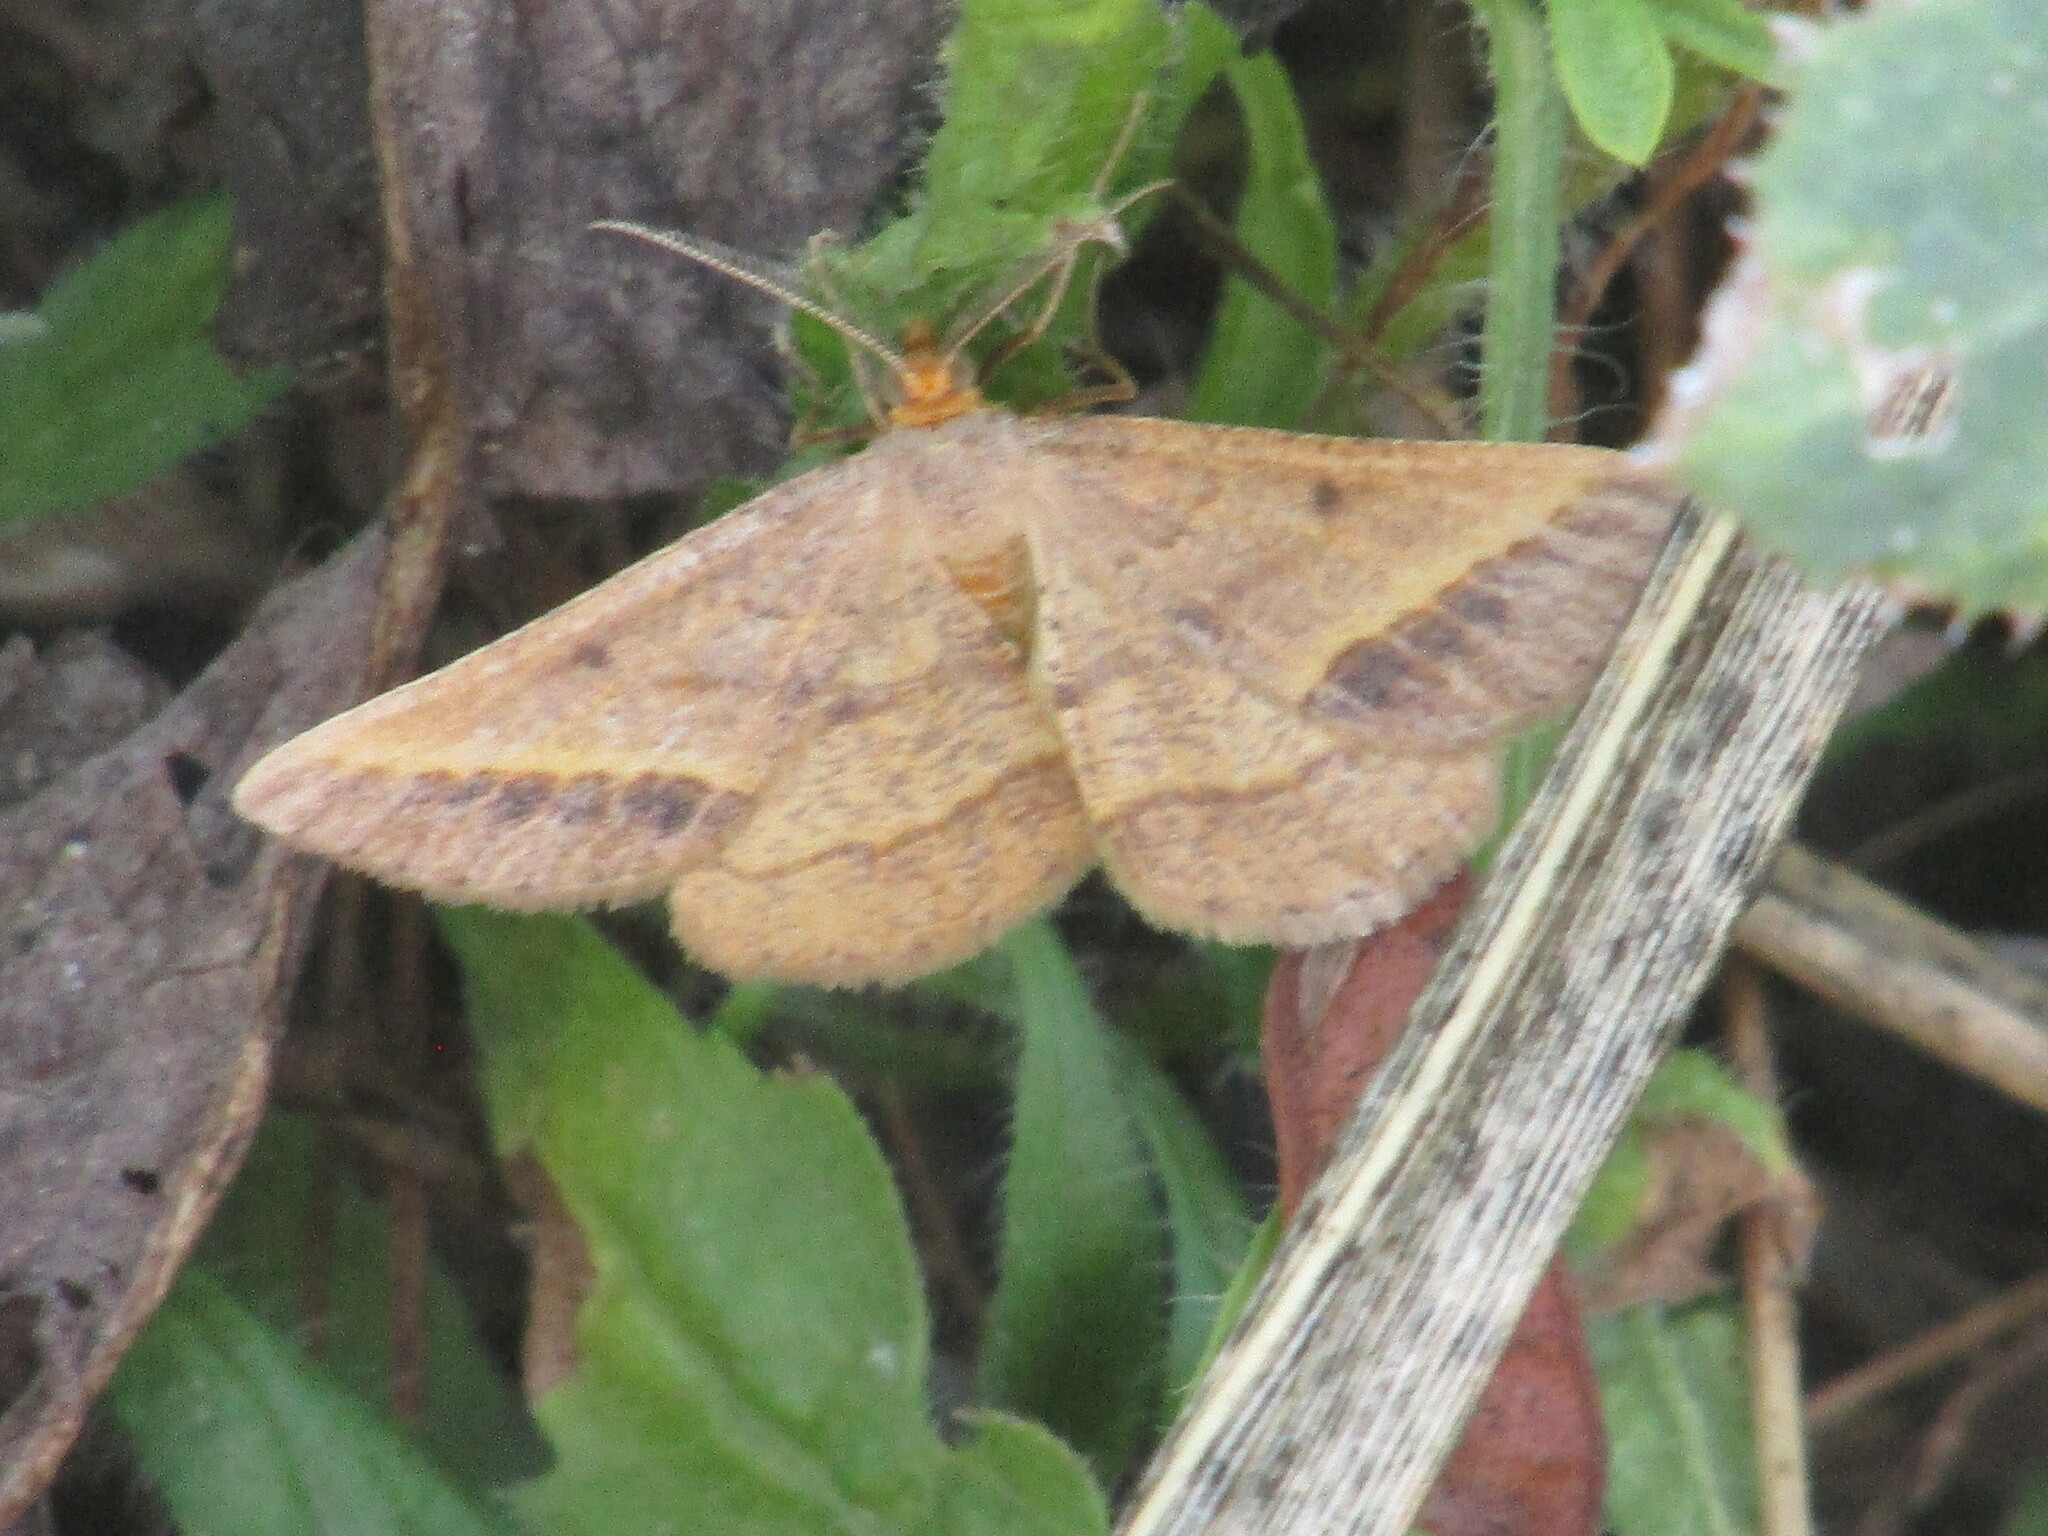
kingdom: Animalia
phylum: Arthropoda
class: Insecta
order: Lepidoptera
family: Geometridae
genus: Tephrina
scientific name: Tephrina arenacearia
